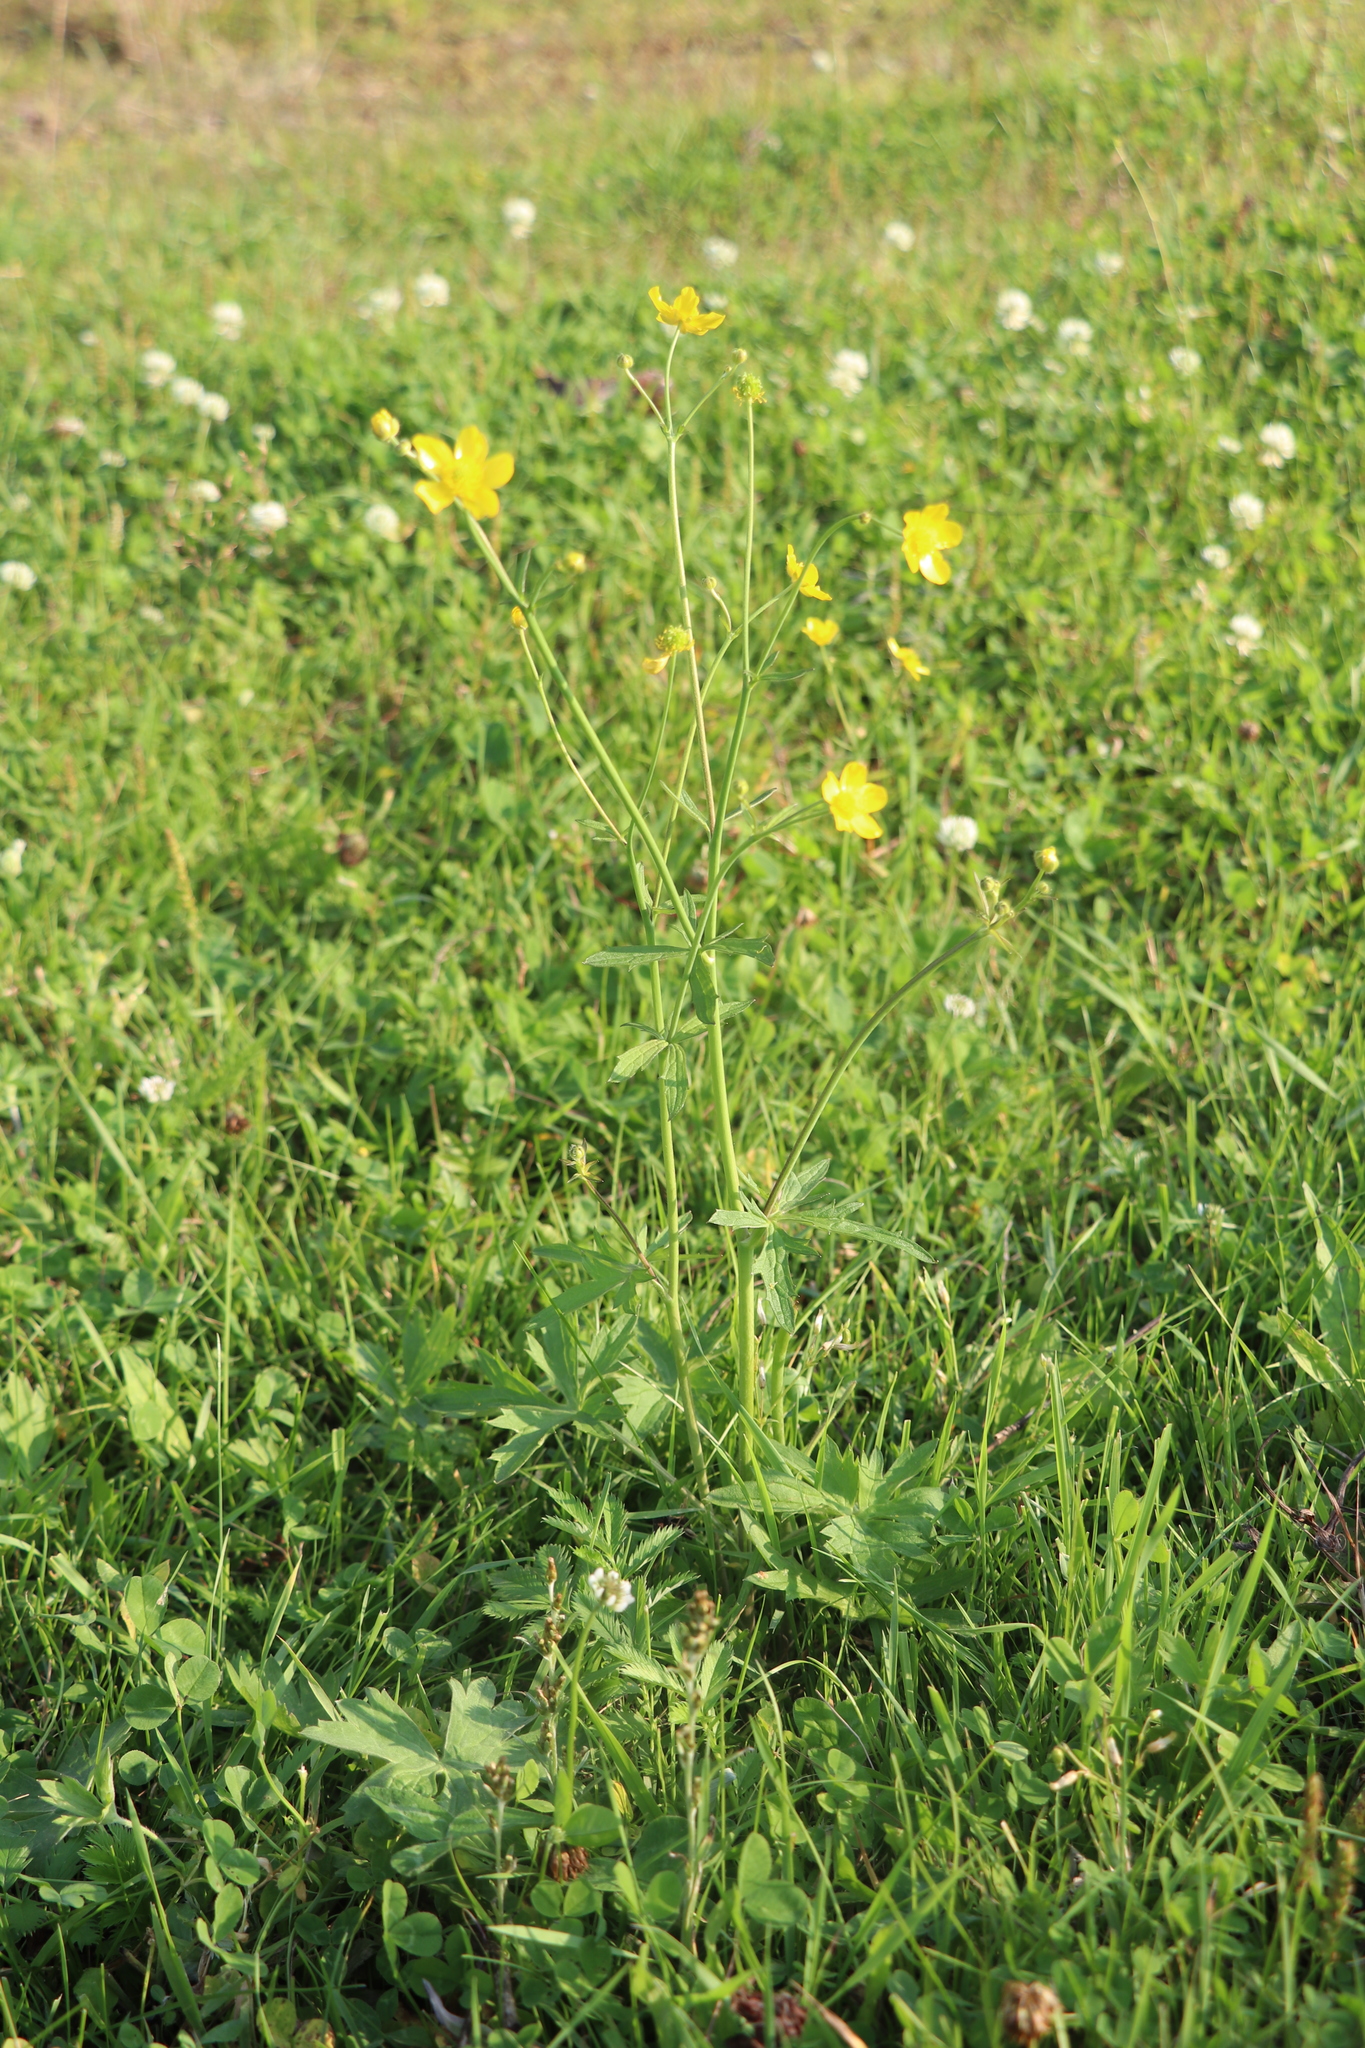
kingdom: Plantae
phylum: Tracheophyta
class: Magnoliopsida
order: Ranunculales
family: Ranunculaceae
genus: Ranunculus
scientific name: Ranunculus acris
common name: Meadow buttercup
